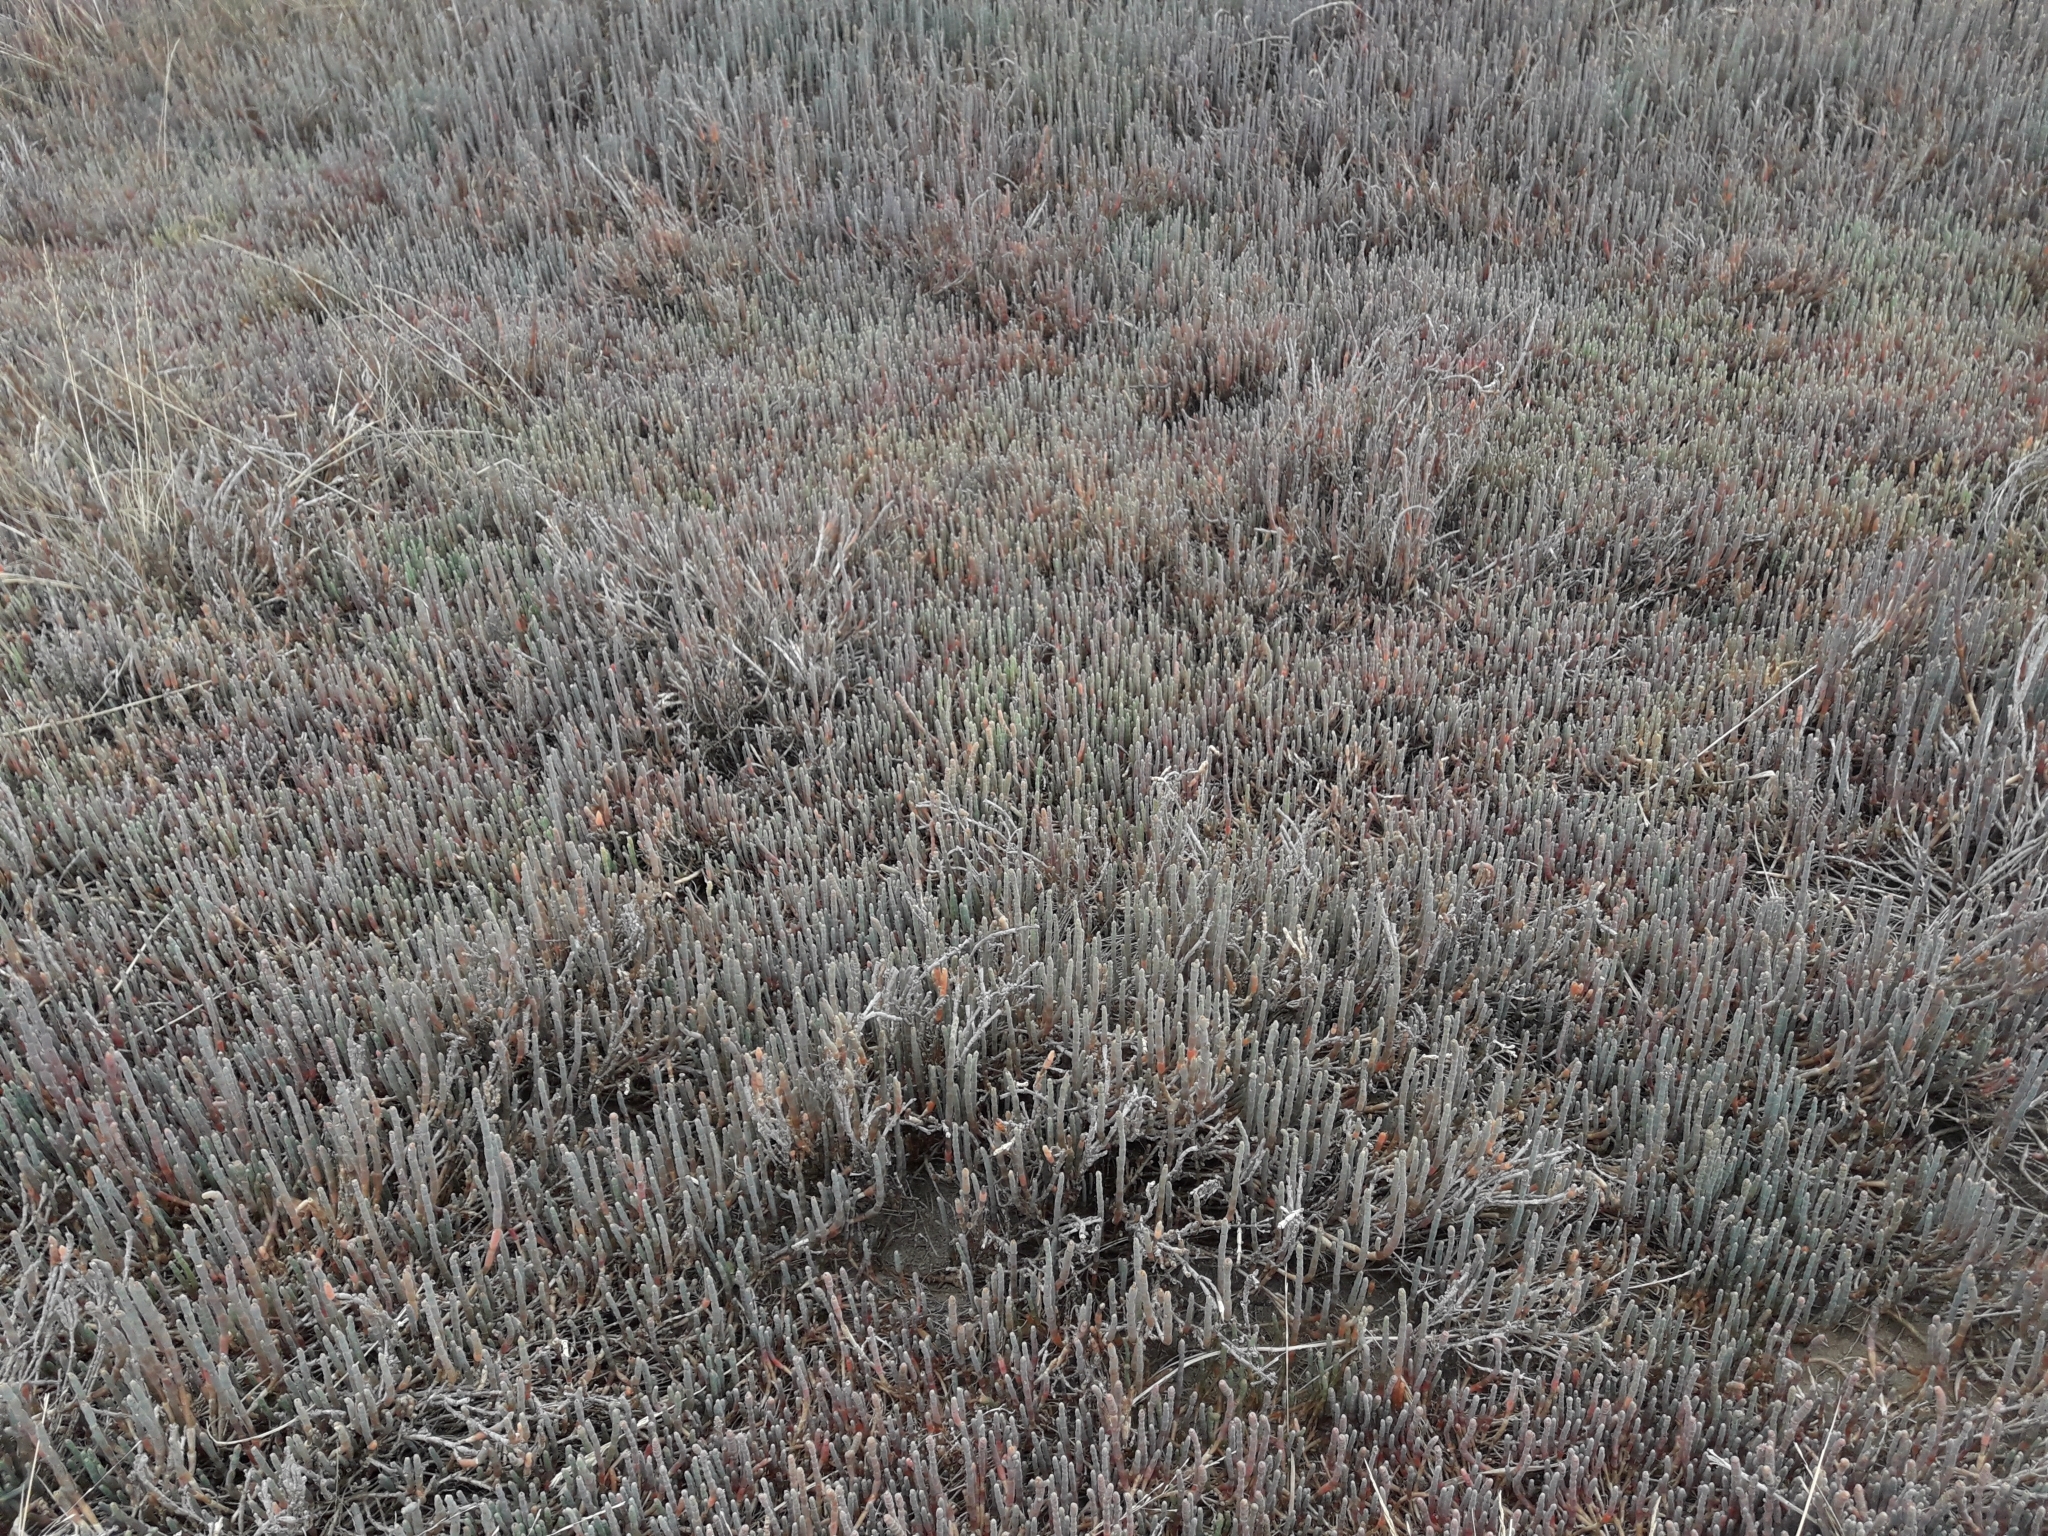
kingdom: Plantae
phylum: Tracheophyta
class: Magnoliopsida
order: Caryophyllales
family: Amaranthaceae
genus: Salicornia
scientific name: Salicornia quinqueflora
